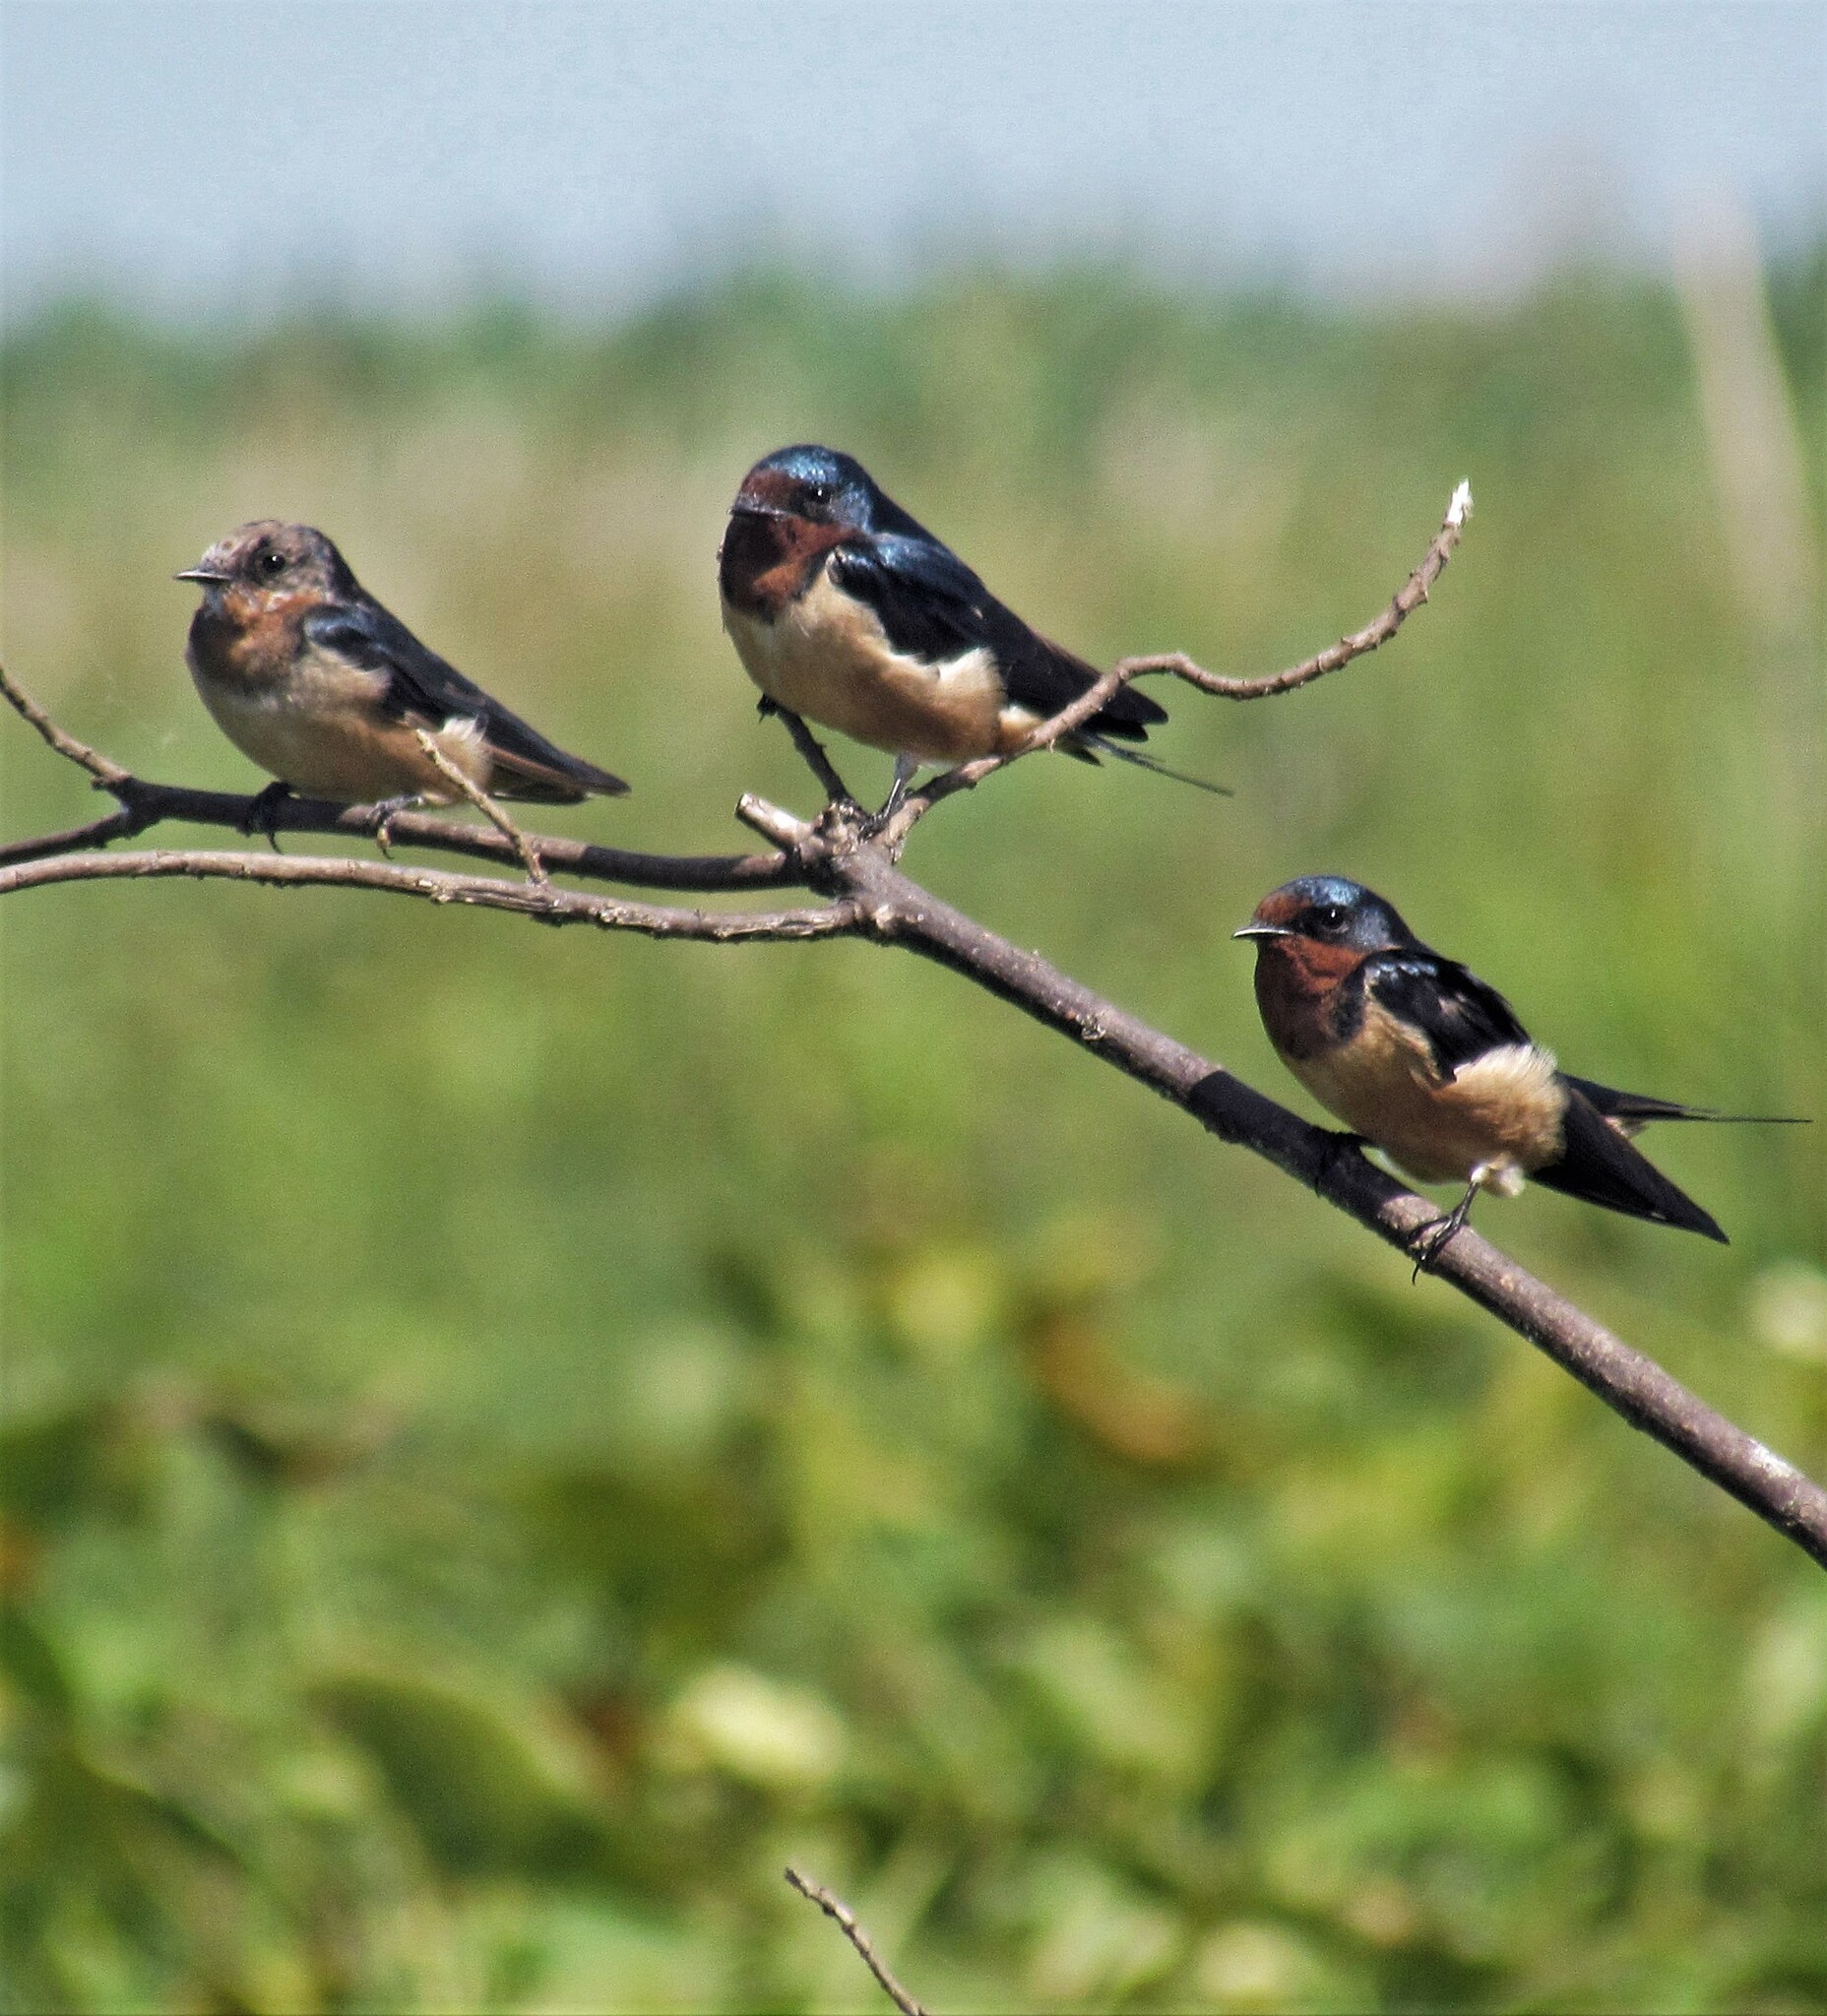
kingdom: Animalia
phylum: Chordata
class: Aves
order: Passeriformes
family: Hirundinidae
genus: Hirundo
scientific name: Hirundo rustica
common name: Barn swallow
